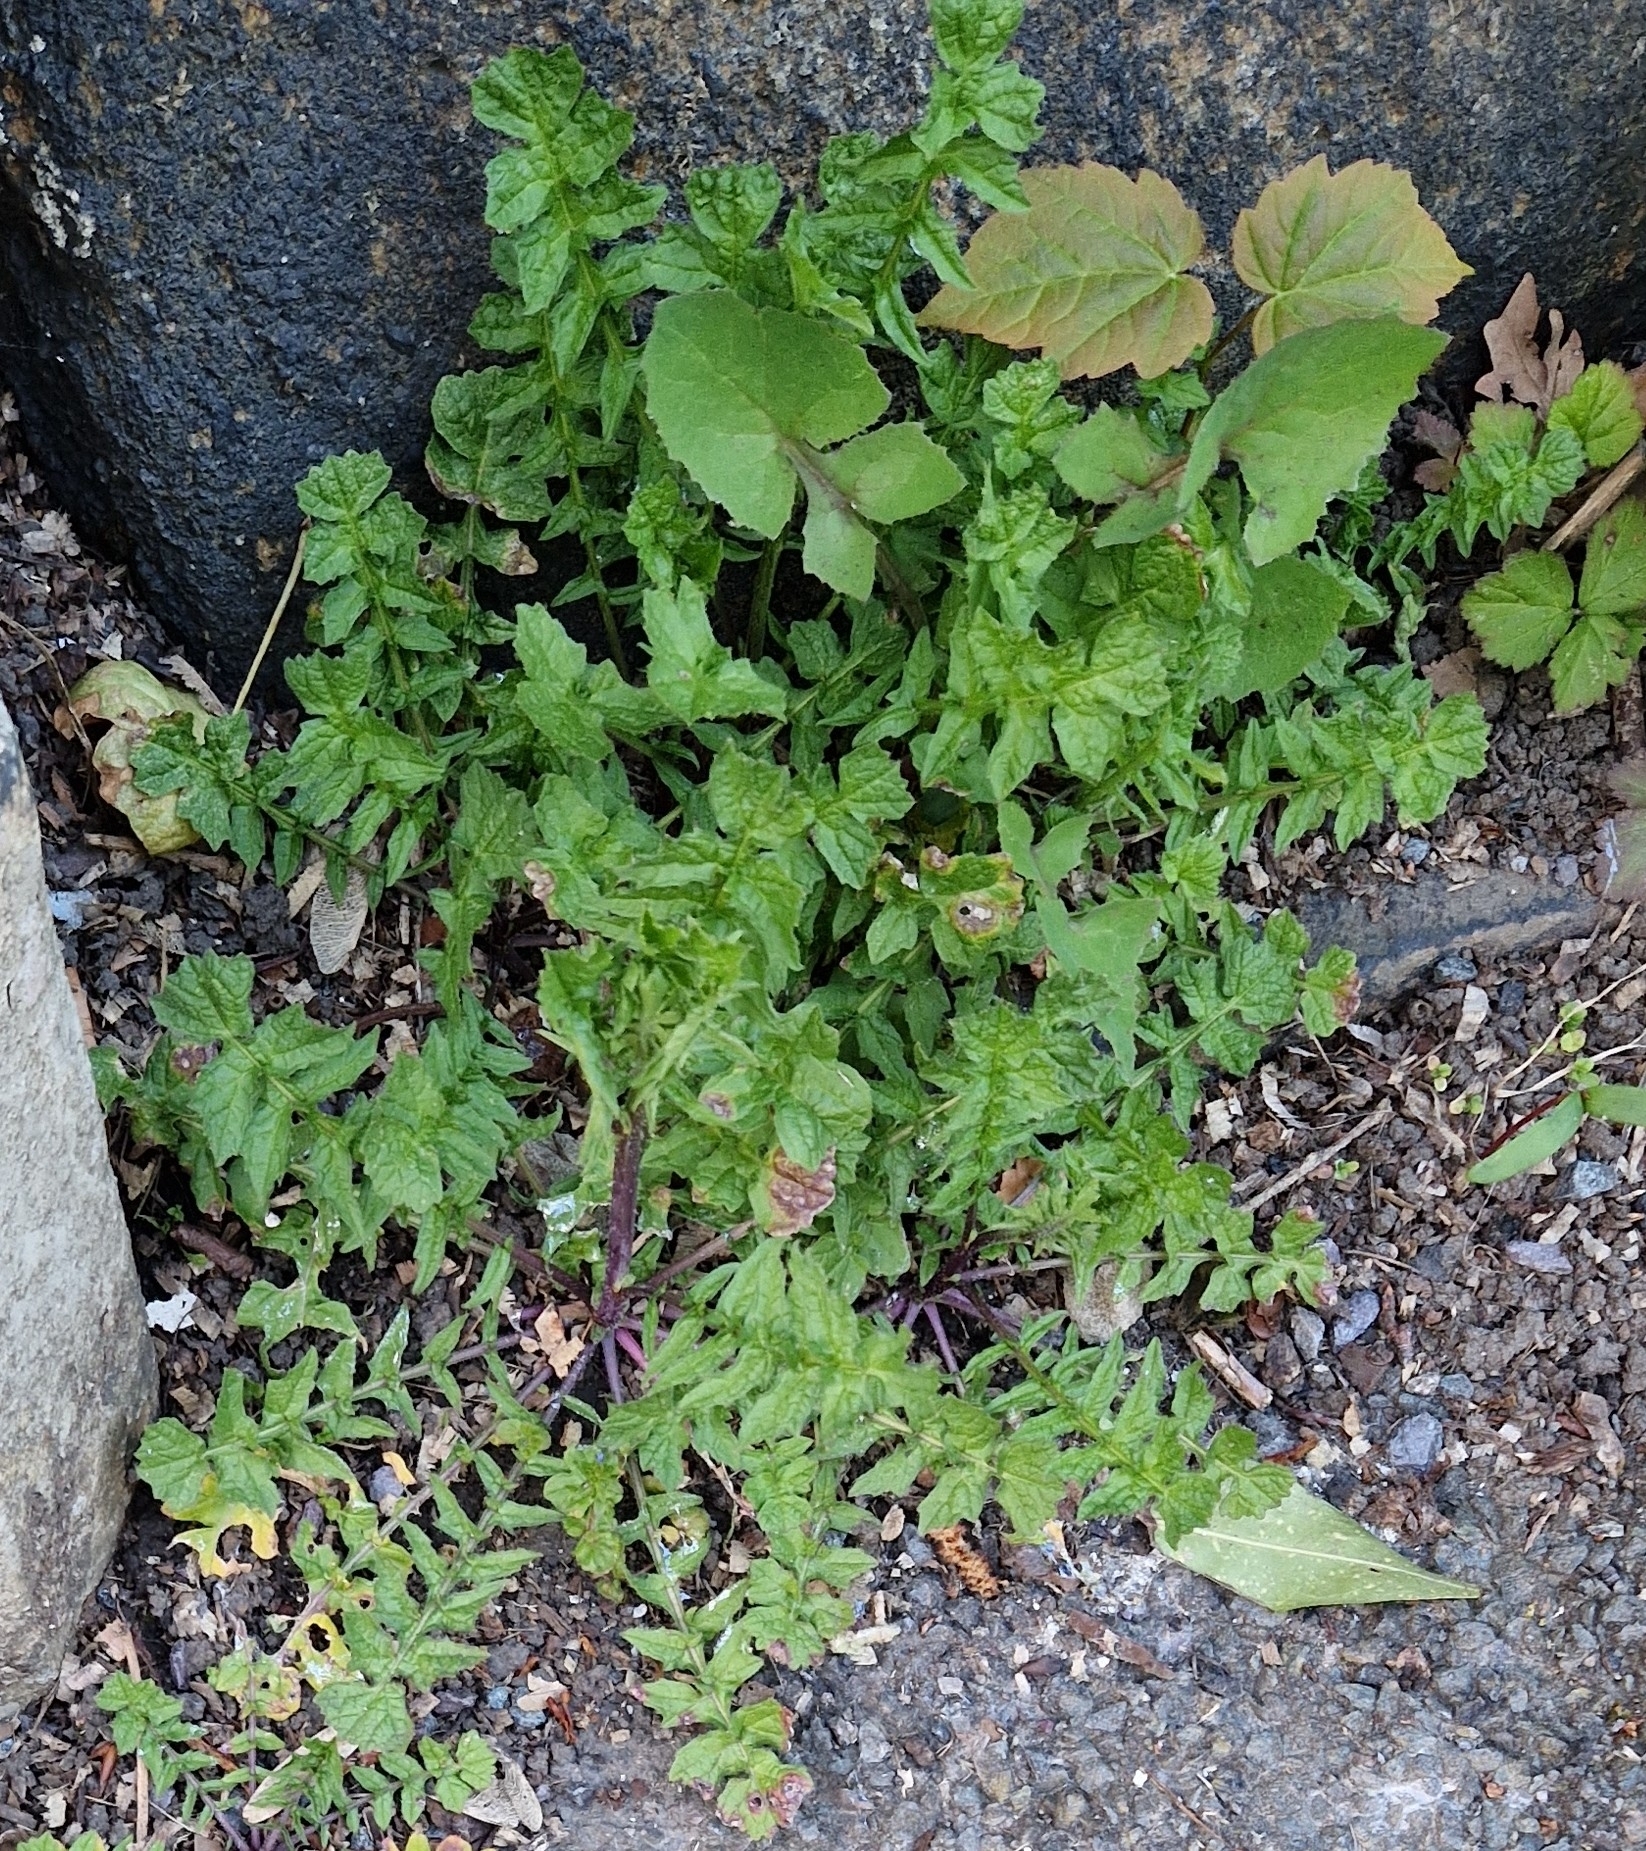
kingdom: Plantae
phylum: Tracheophyta
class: Magnoliopsida
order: Brassicales
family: Brassicaceae
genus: Sisymbrium
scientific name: Sisymbrium officinale
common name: Hedge mustard
